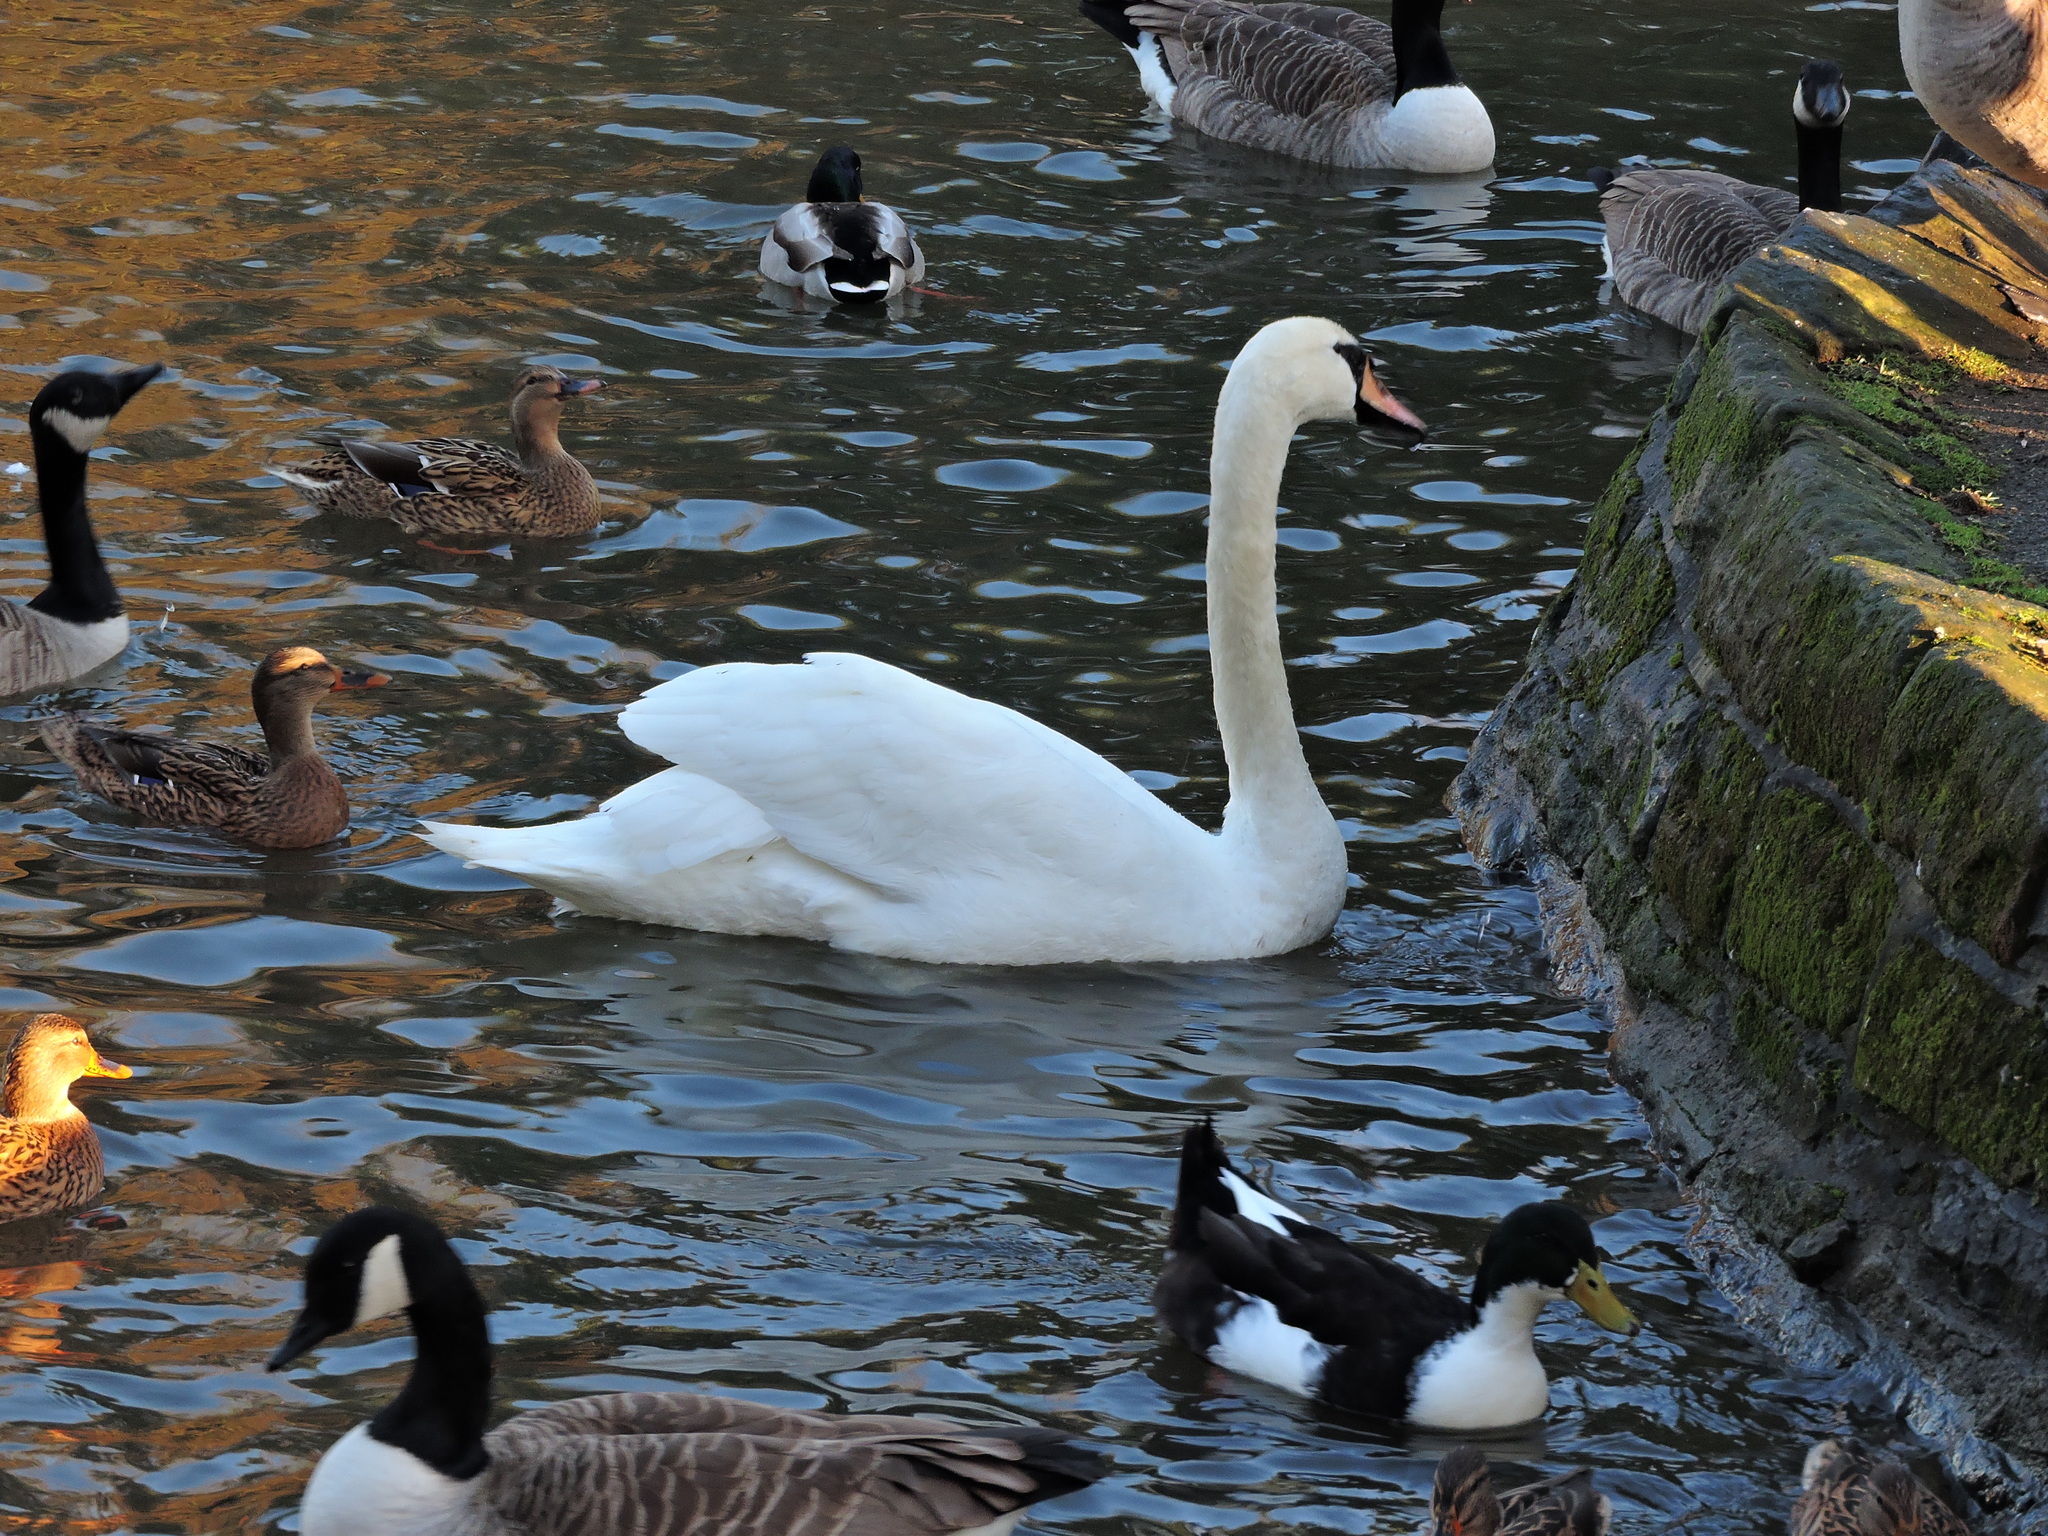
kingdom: Animalia
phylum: Chordata
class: Aves
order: Anseriformes
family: Anatidae
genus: Cygnus
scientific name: Cygnus olor
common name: Mute swan
